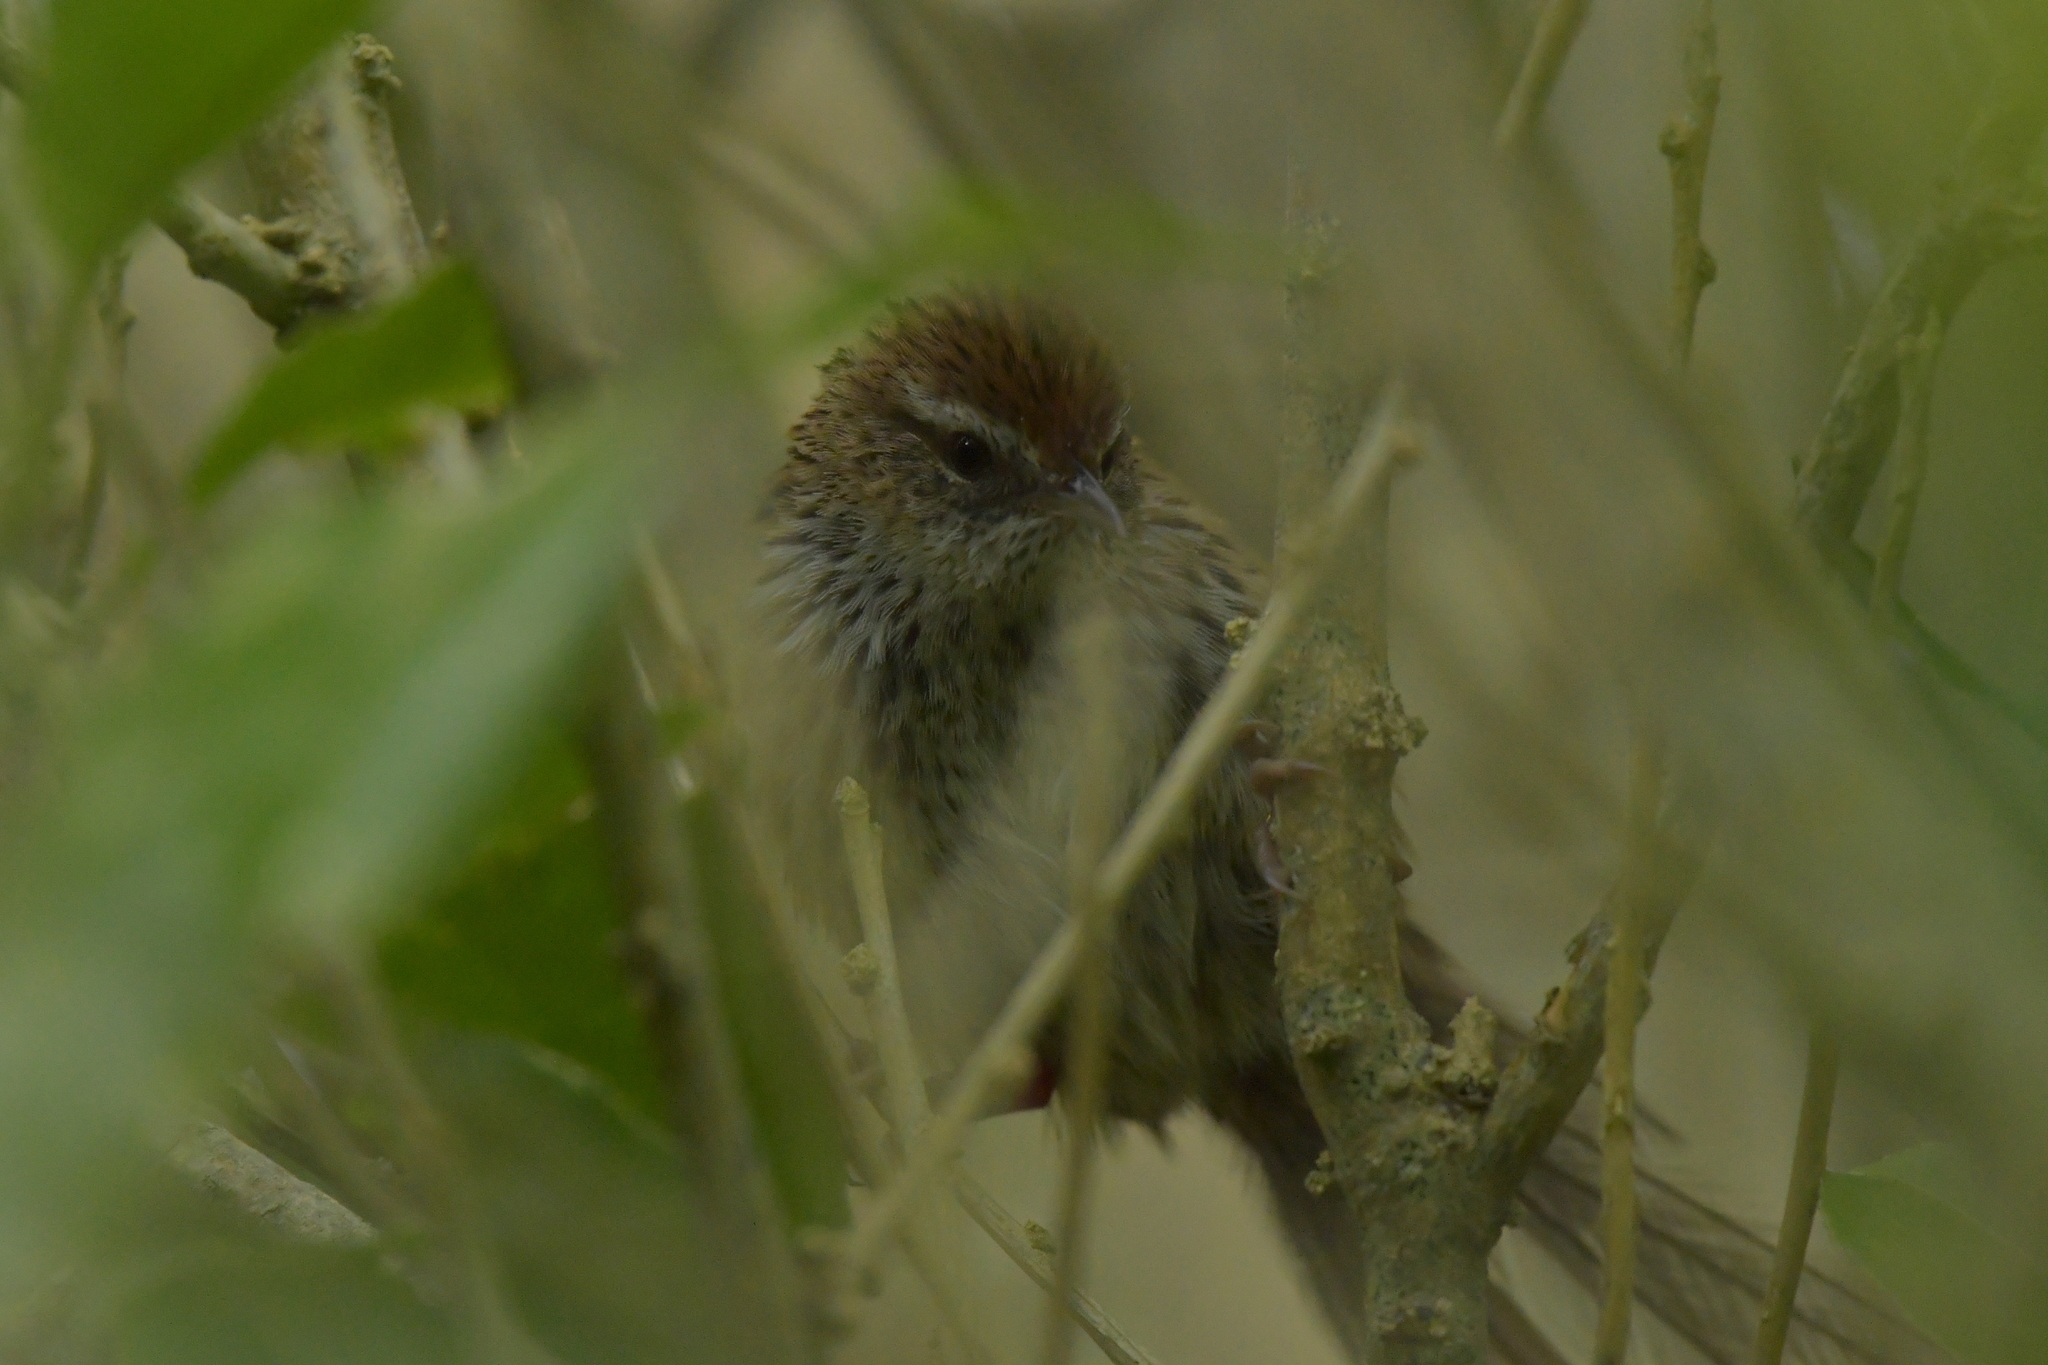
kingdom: Animalia
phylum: Chordata
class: Aves
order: Passeriformes
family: Locustellidae
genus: Megalurus
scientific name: Megalurus punctatus
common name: New zealand fernbird
